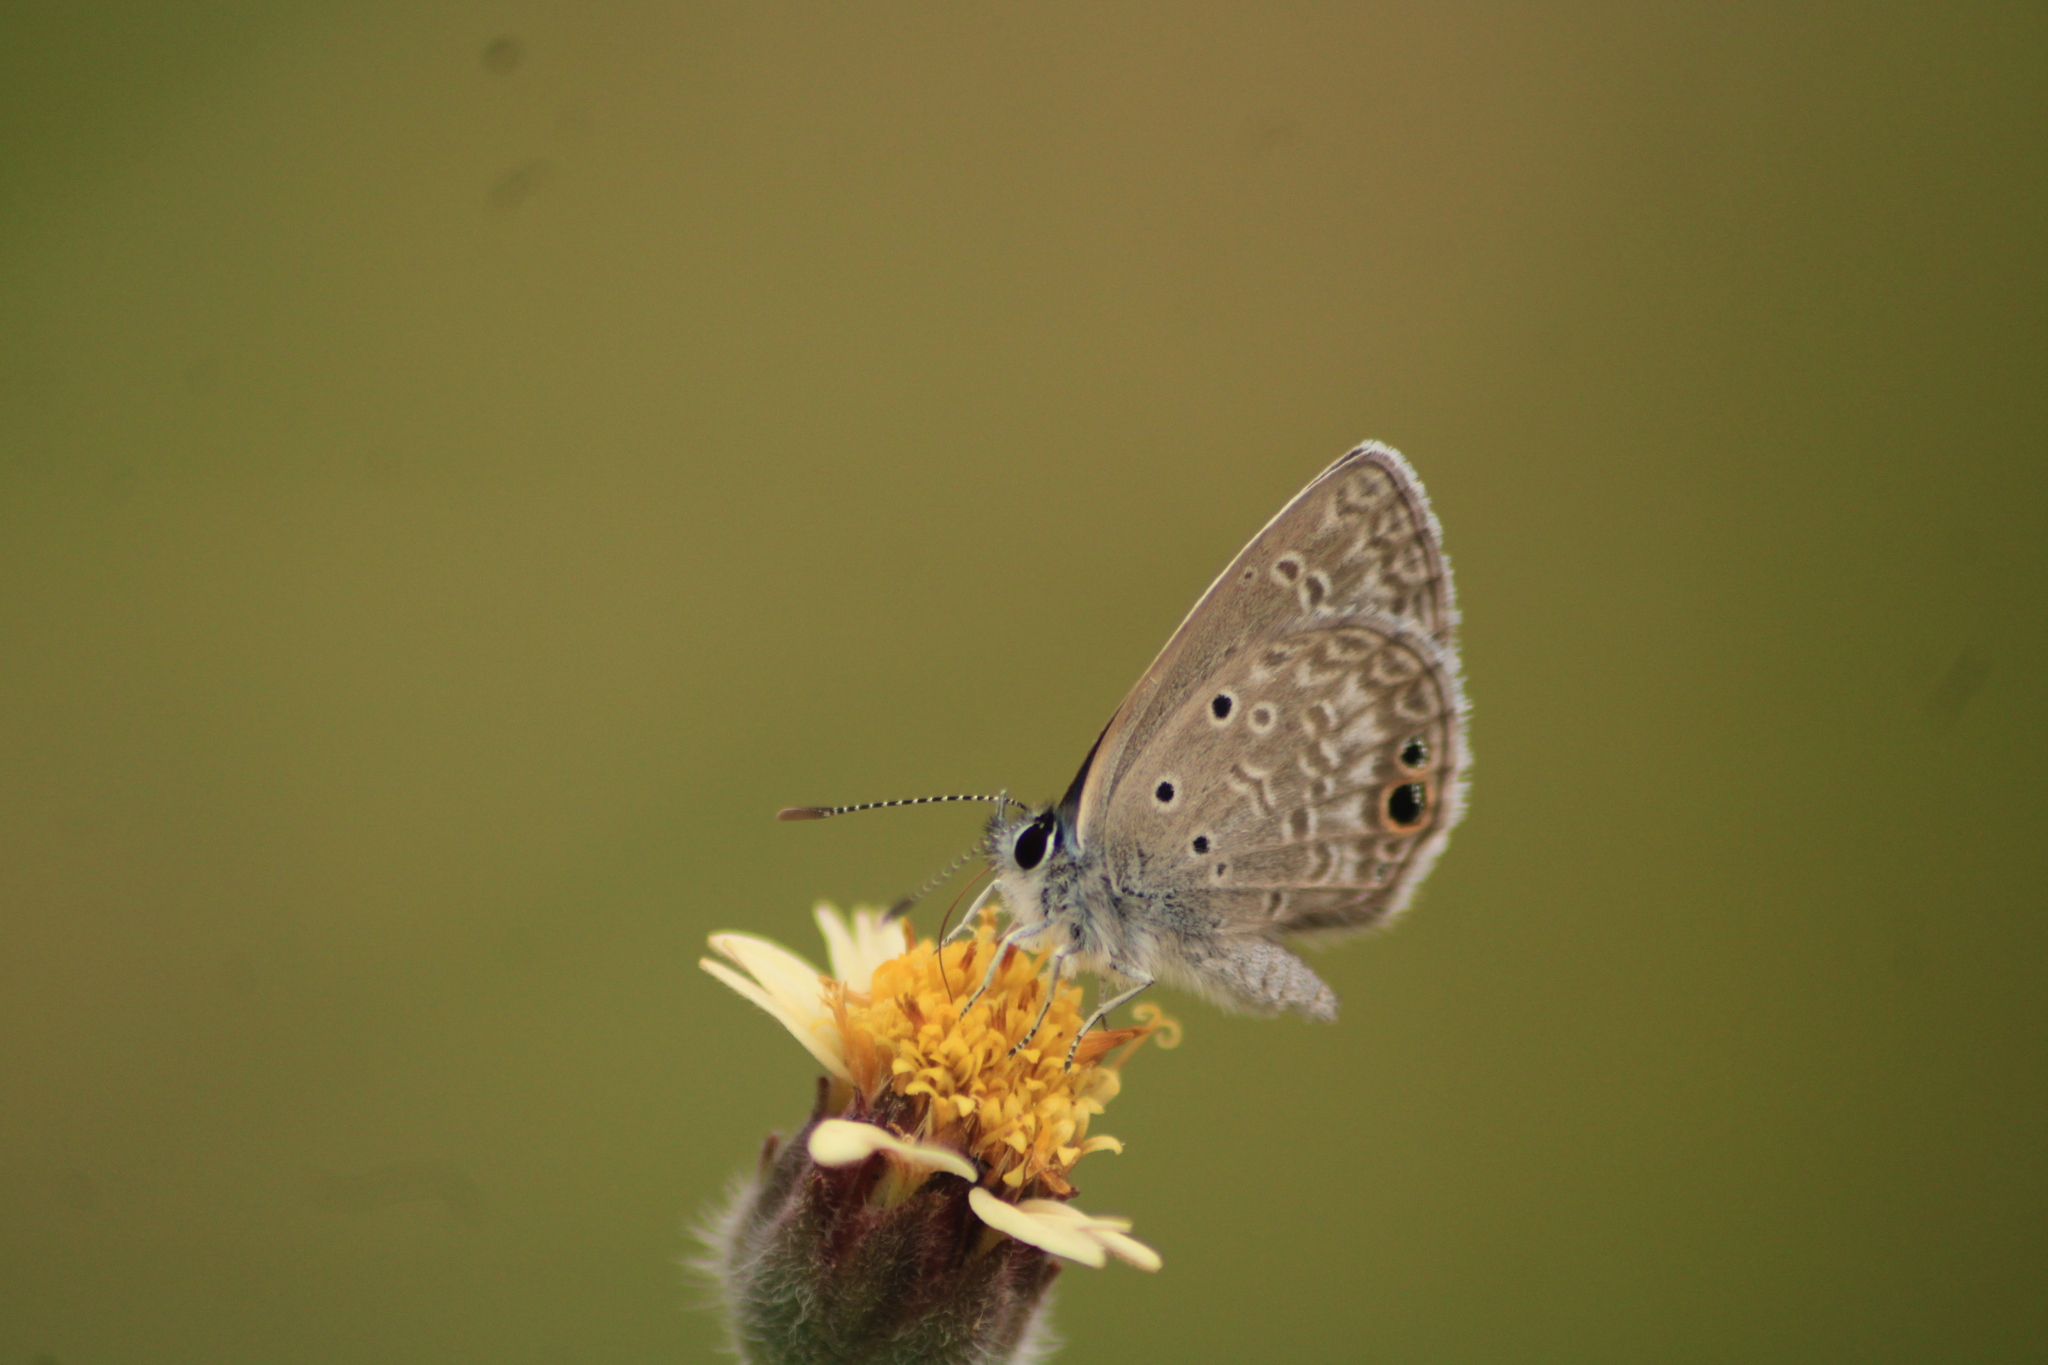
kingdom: Animalia
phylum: Arthropoda
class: Insecta
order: Lepidoptera
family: Lycaenidae
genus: Echinargus
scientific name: Echinargus isola
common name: Reakirt's blue
